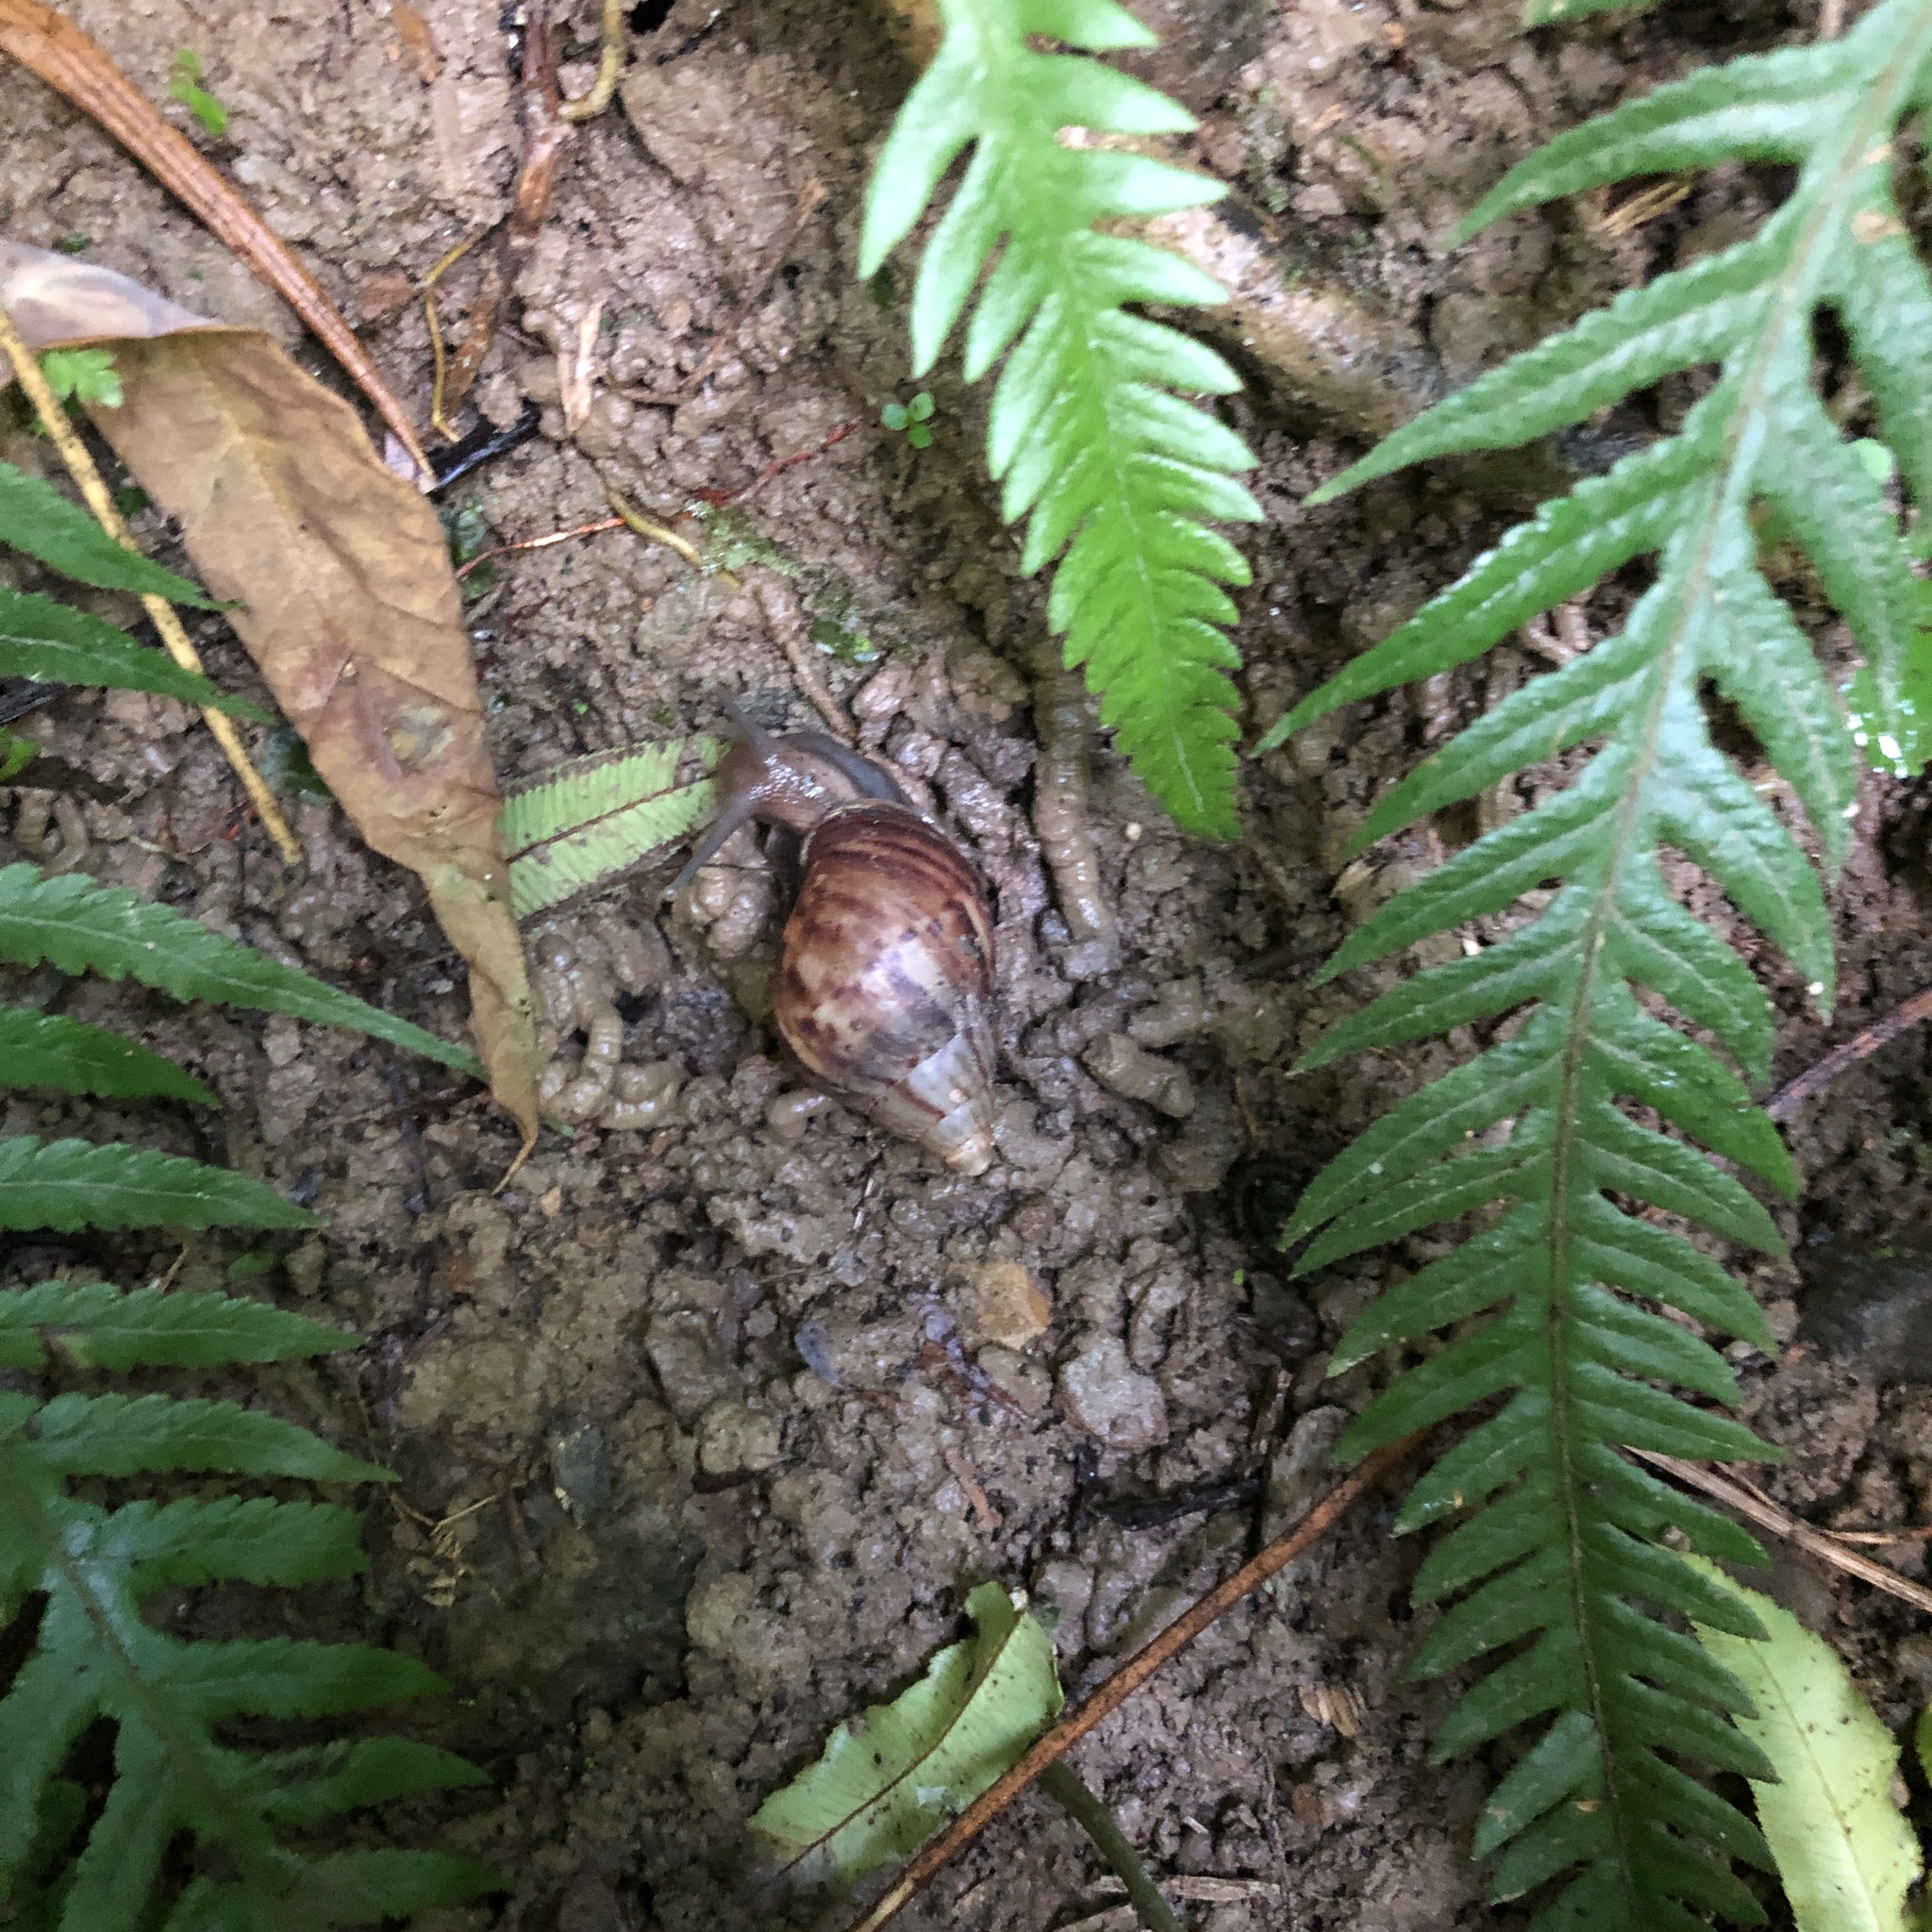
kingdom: Animalia
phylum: Mollusca
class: Gastropoda
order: Stylommatophora
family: Achatinidae
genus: Lissachatina
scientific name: Lissachatina fulica
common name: Giant african snail
